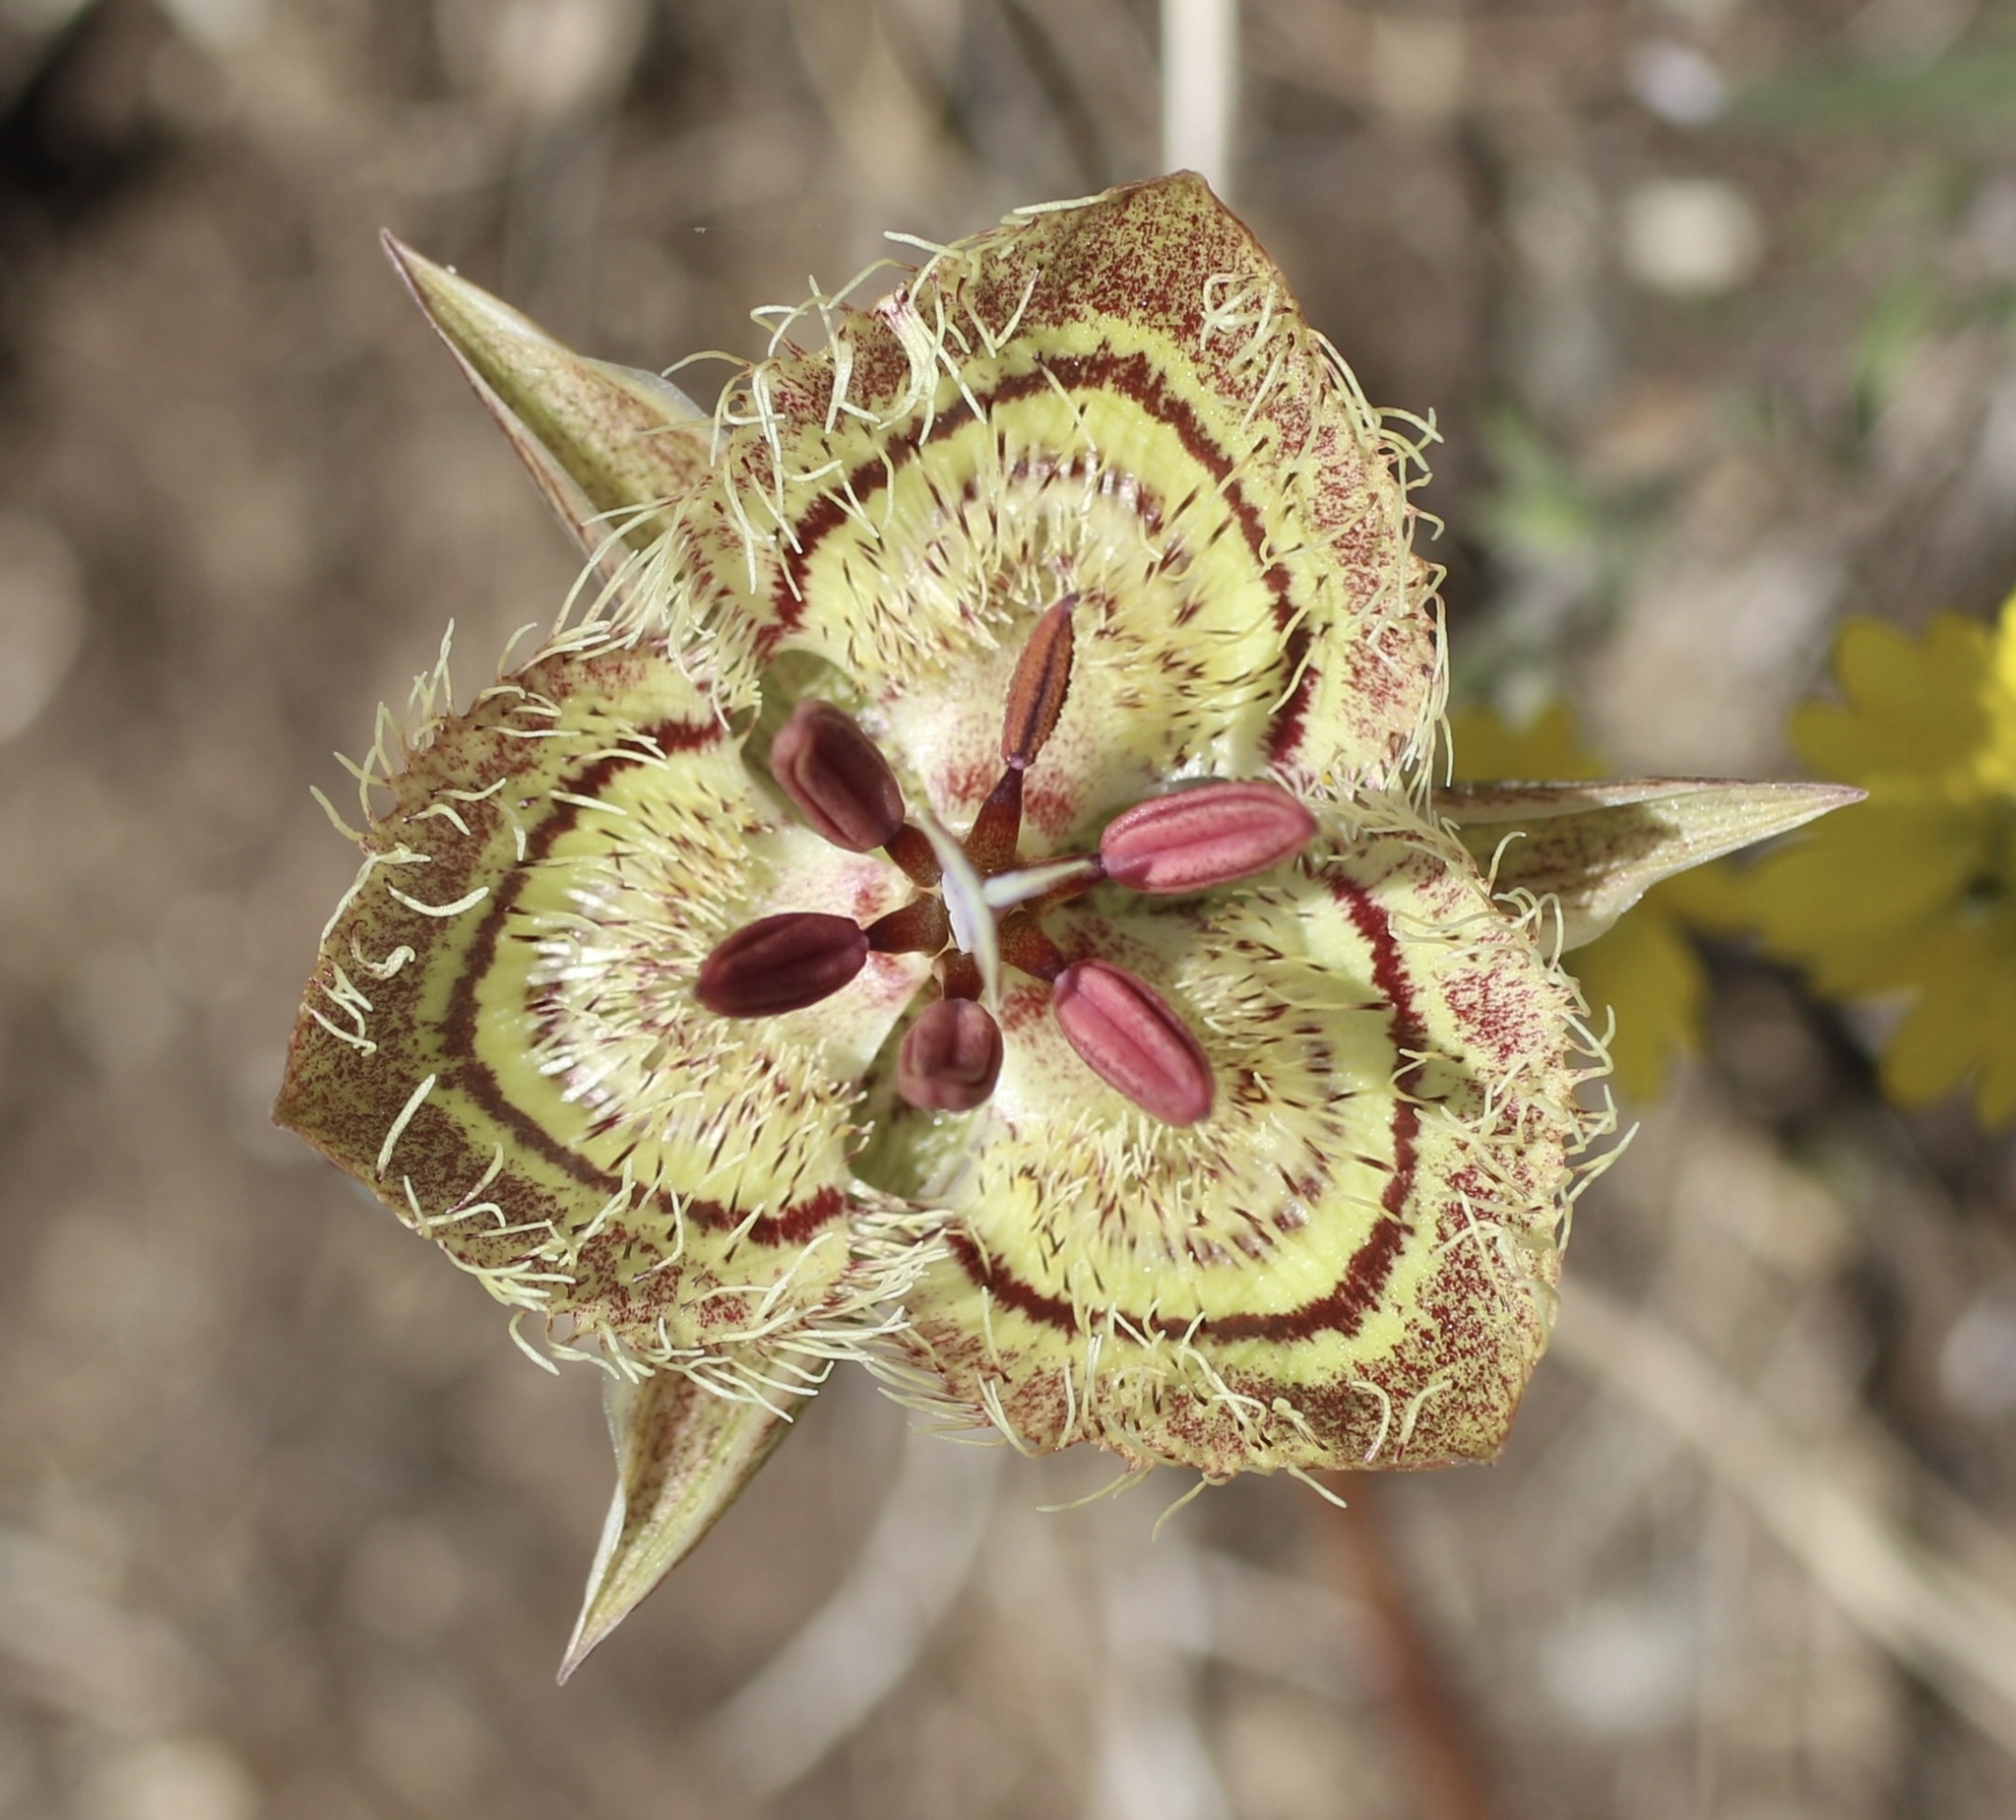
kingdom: Plantae
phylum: Tracheophyta
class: Liliopsida
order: Liliales
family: Liliaceae
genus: Calochortus
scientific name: Calochortus tiburonensis
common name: Tiburon mariposa-lily
